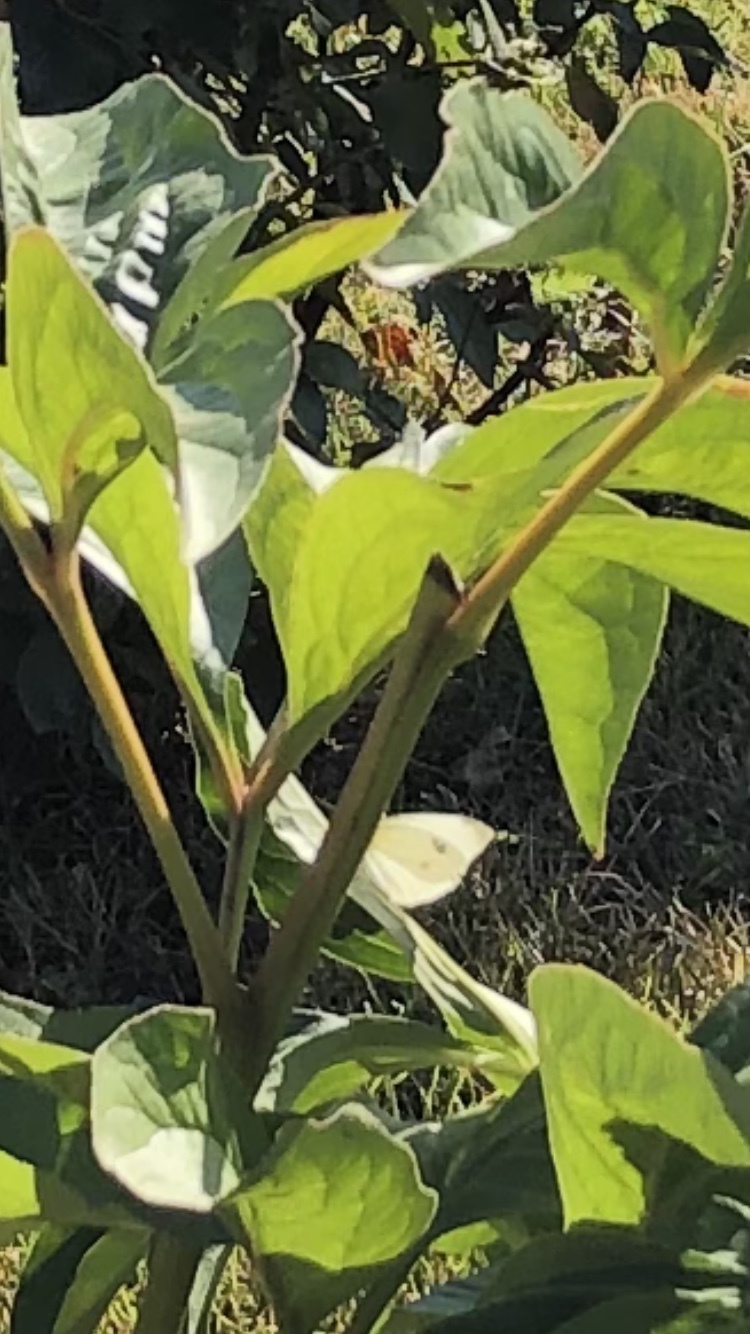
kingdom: Animalia
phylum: Arthropoda
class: Insecta
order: Lepidoptera
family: Pieridae
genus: Pieris
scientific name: Pieris rapae
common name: Small white
